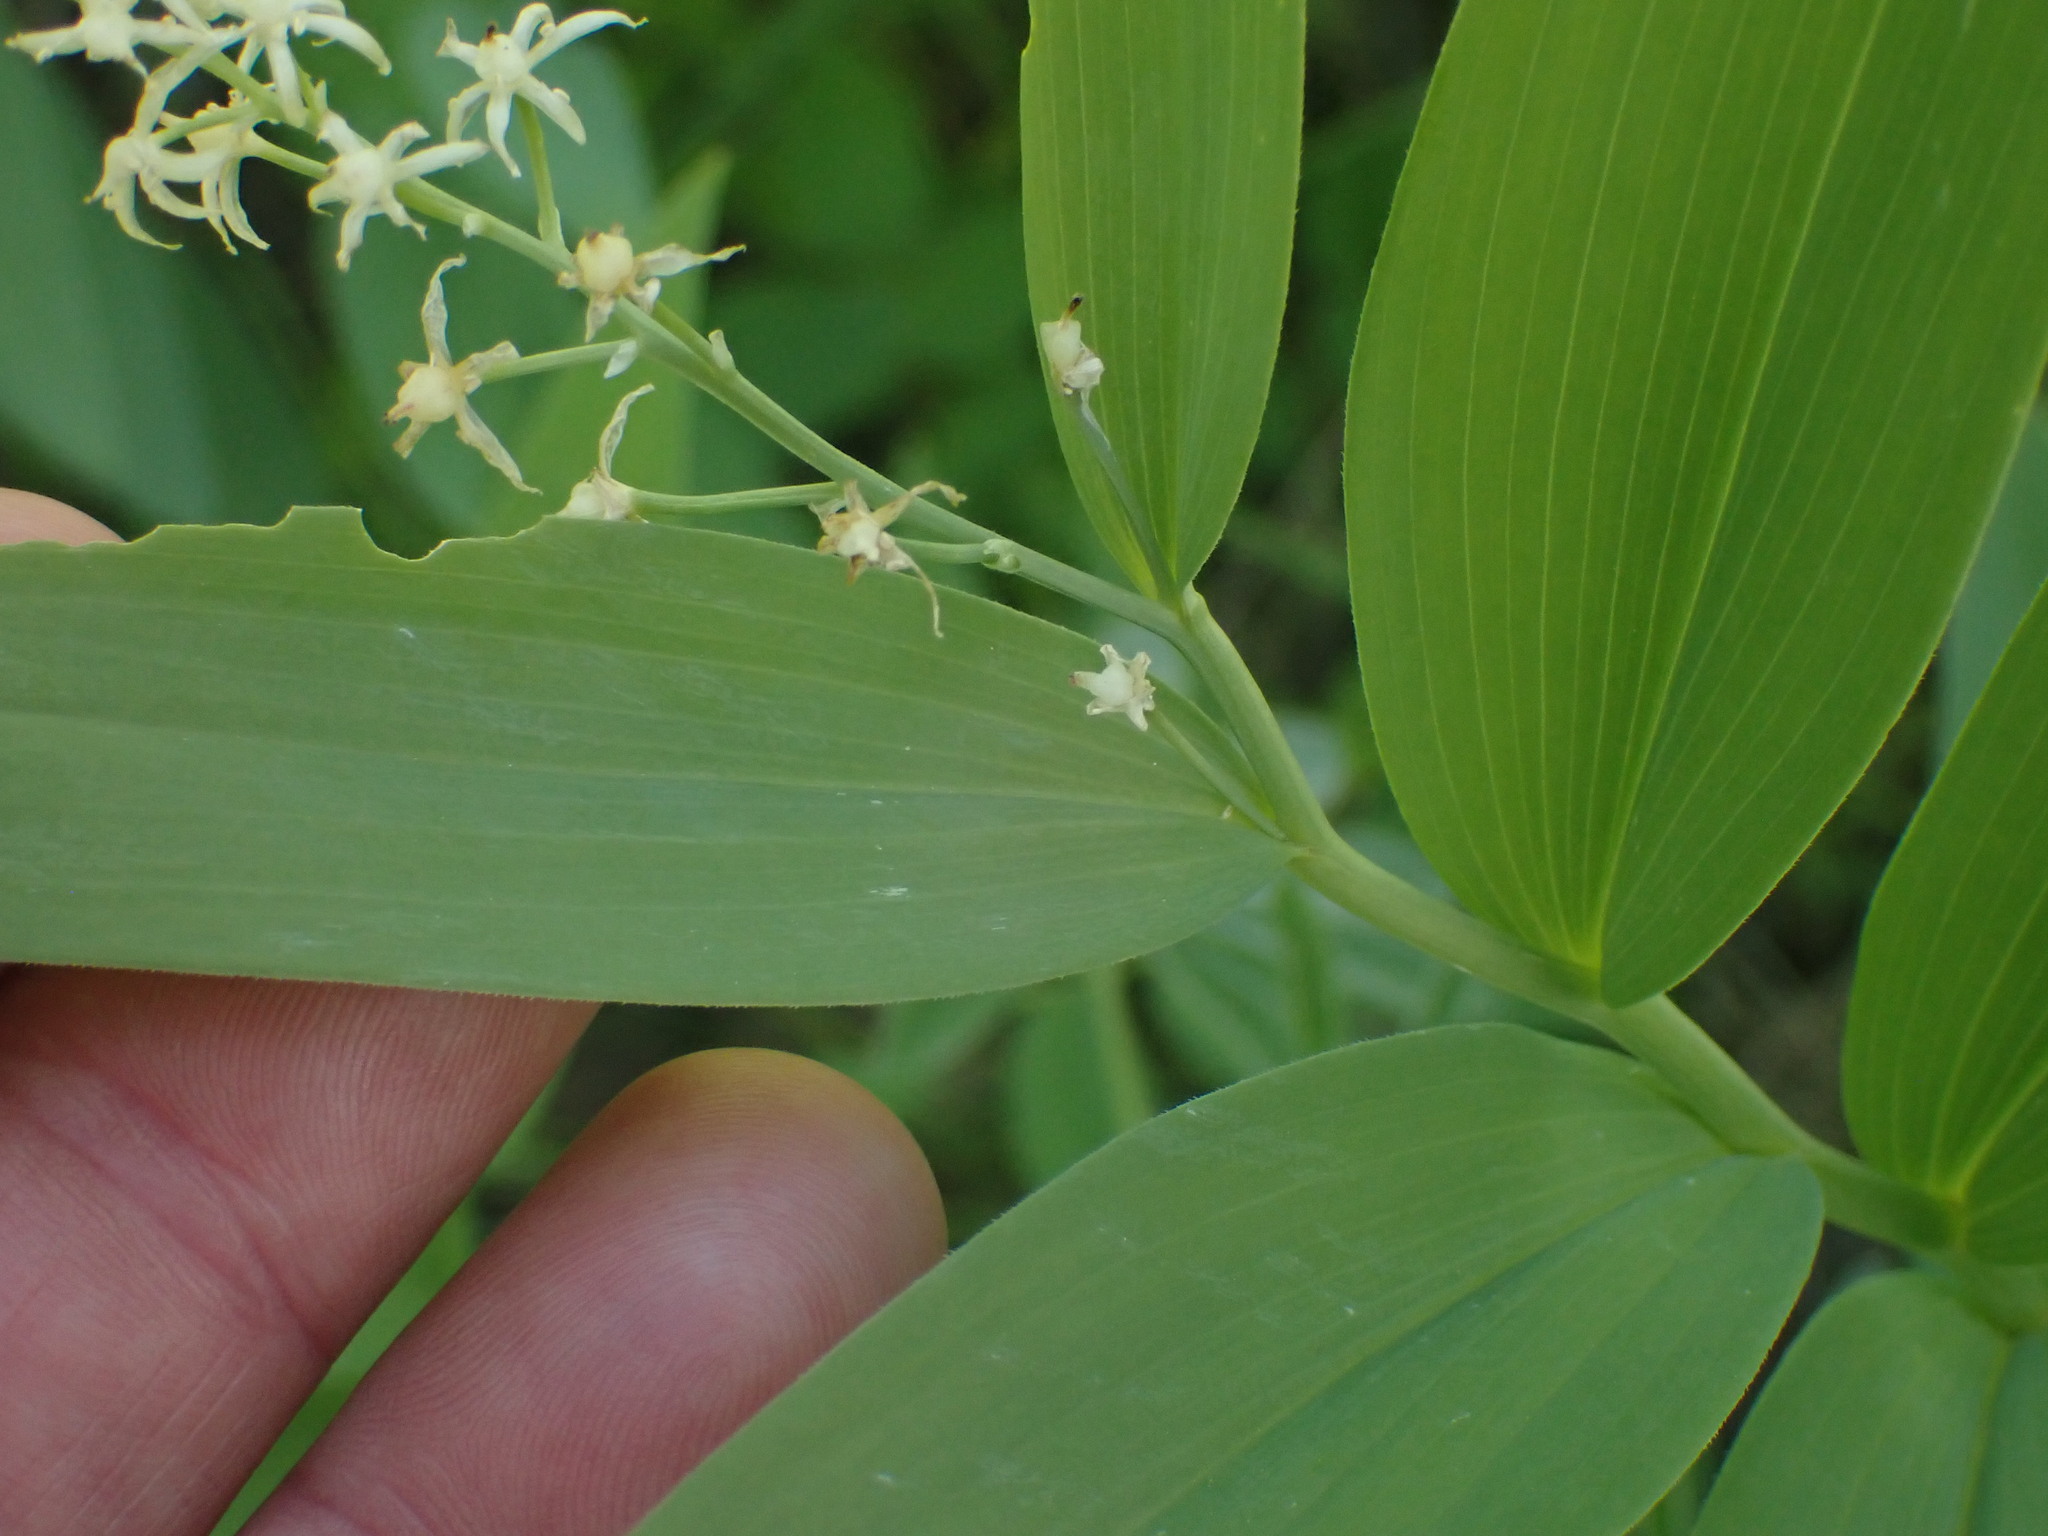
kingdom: Plantae
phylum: Tracheophyta
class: Liliopsida
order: Asparagales
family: Asparagaceae
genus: Maianthemum
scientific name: Maianthemum stellatum
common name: Little false solomon's seal
